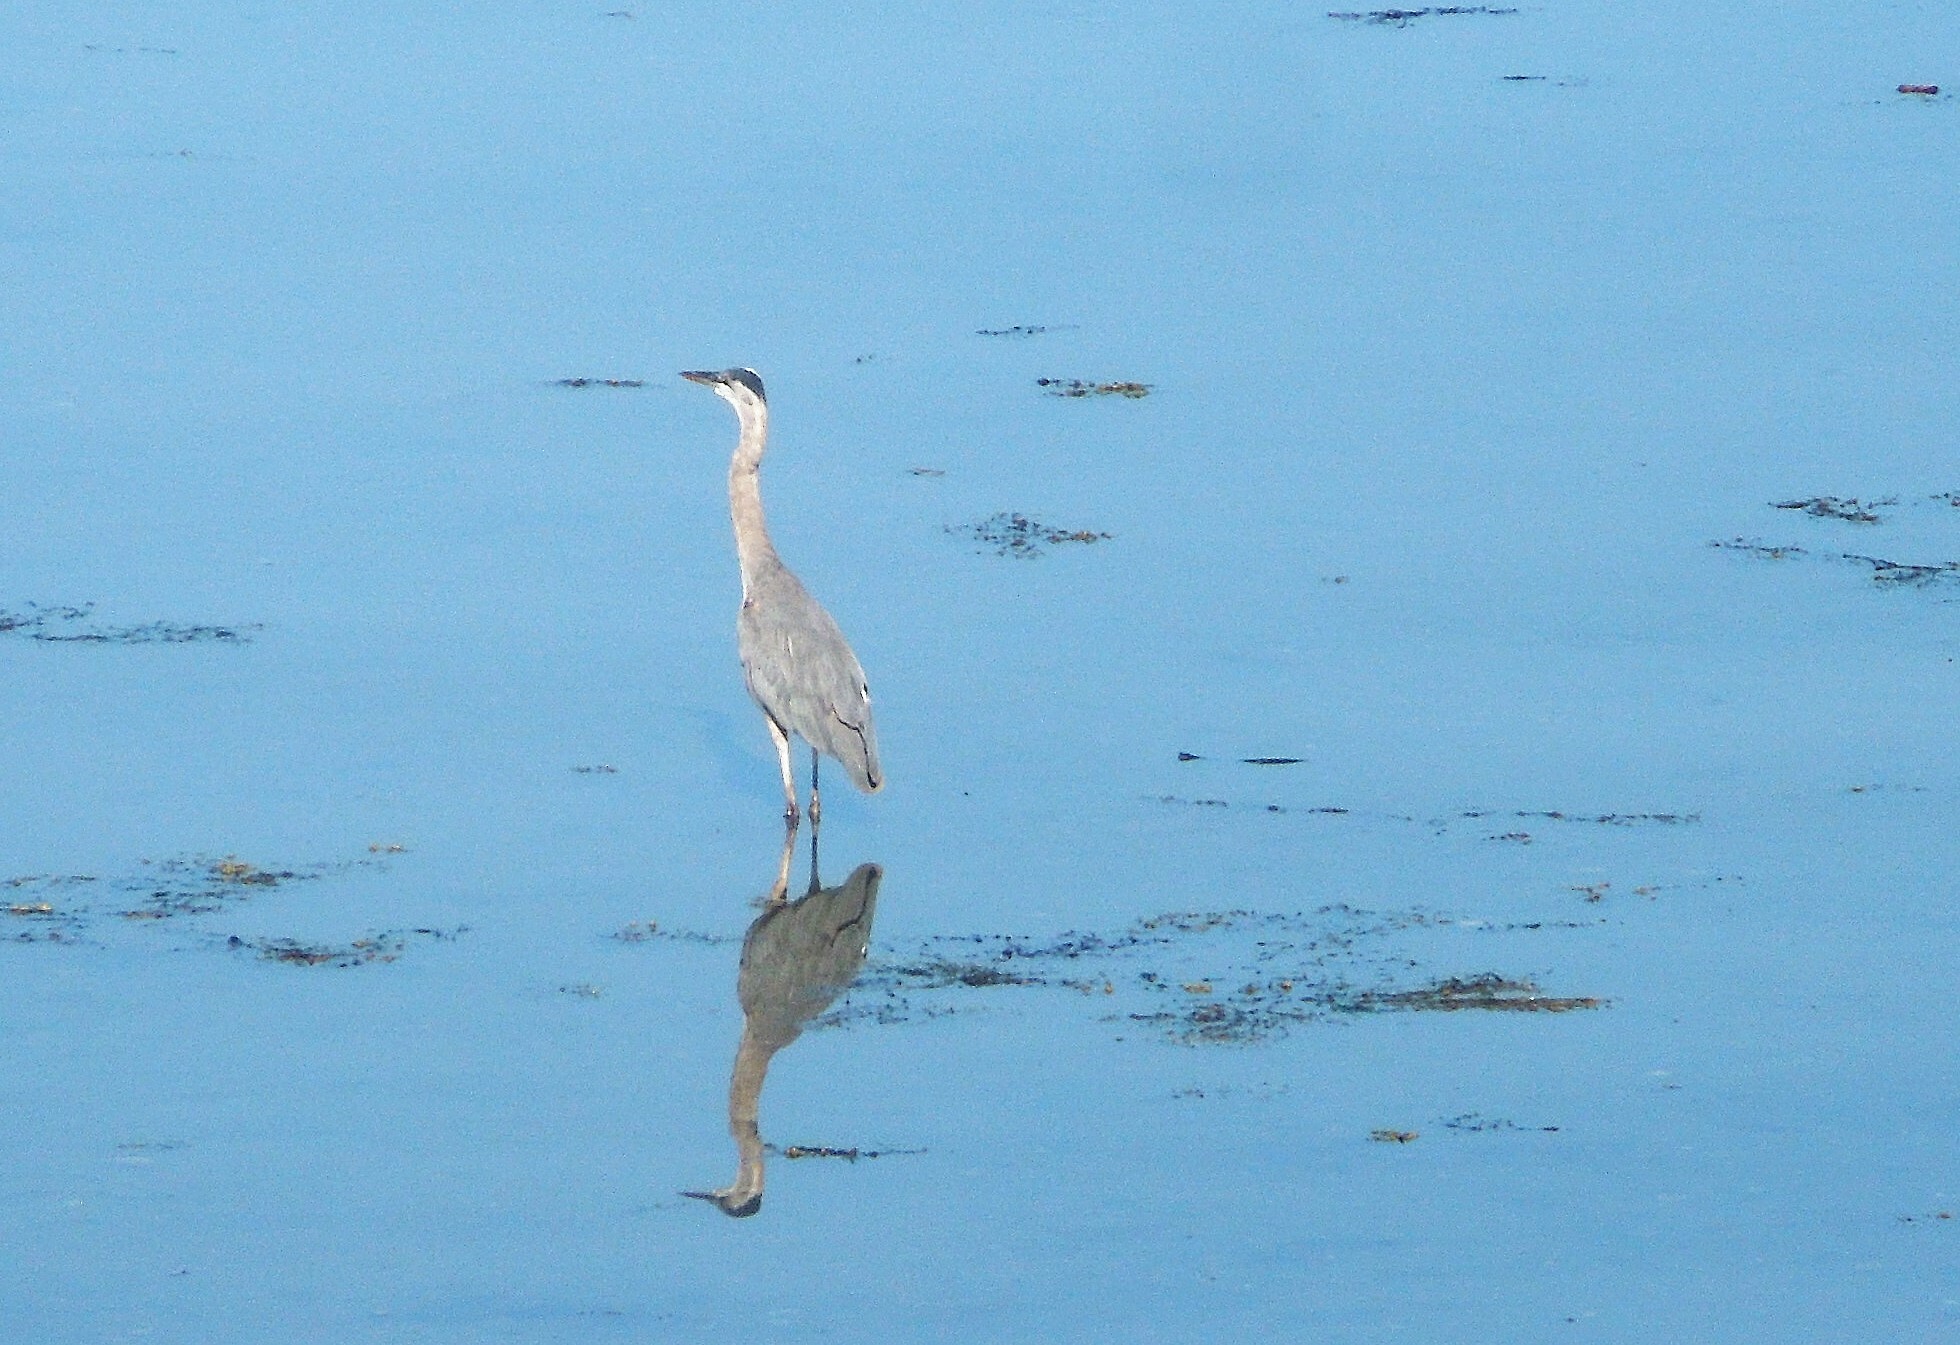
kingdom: Animalia
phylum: Chordata
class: Aves
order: Pelecaniformes
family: Ardeidae
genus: Ardea
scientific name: Ardea herodias
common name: Great blue heron
